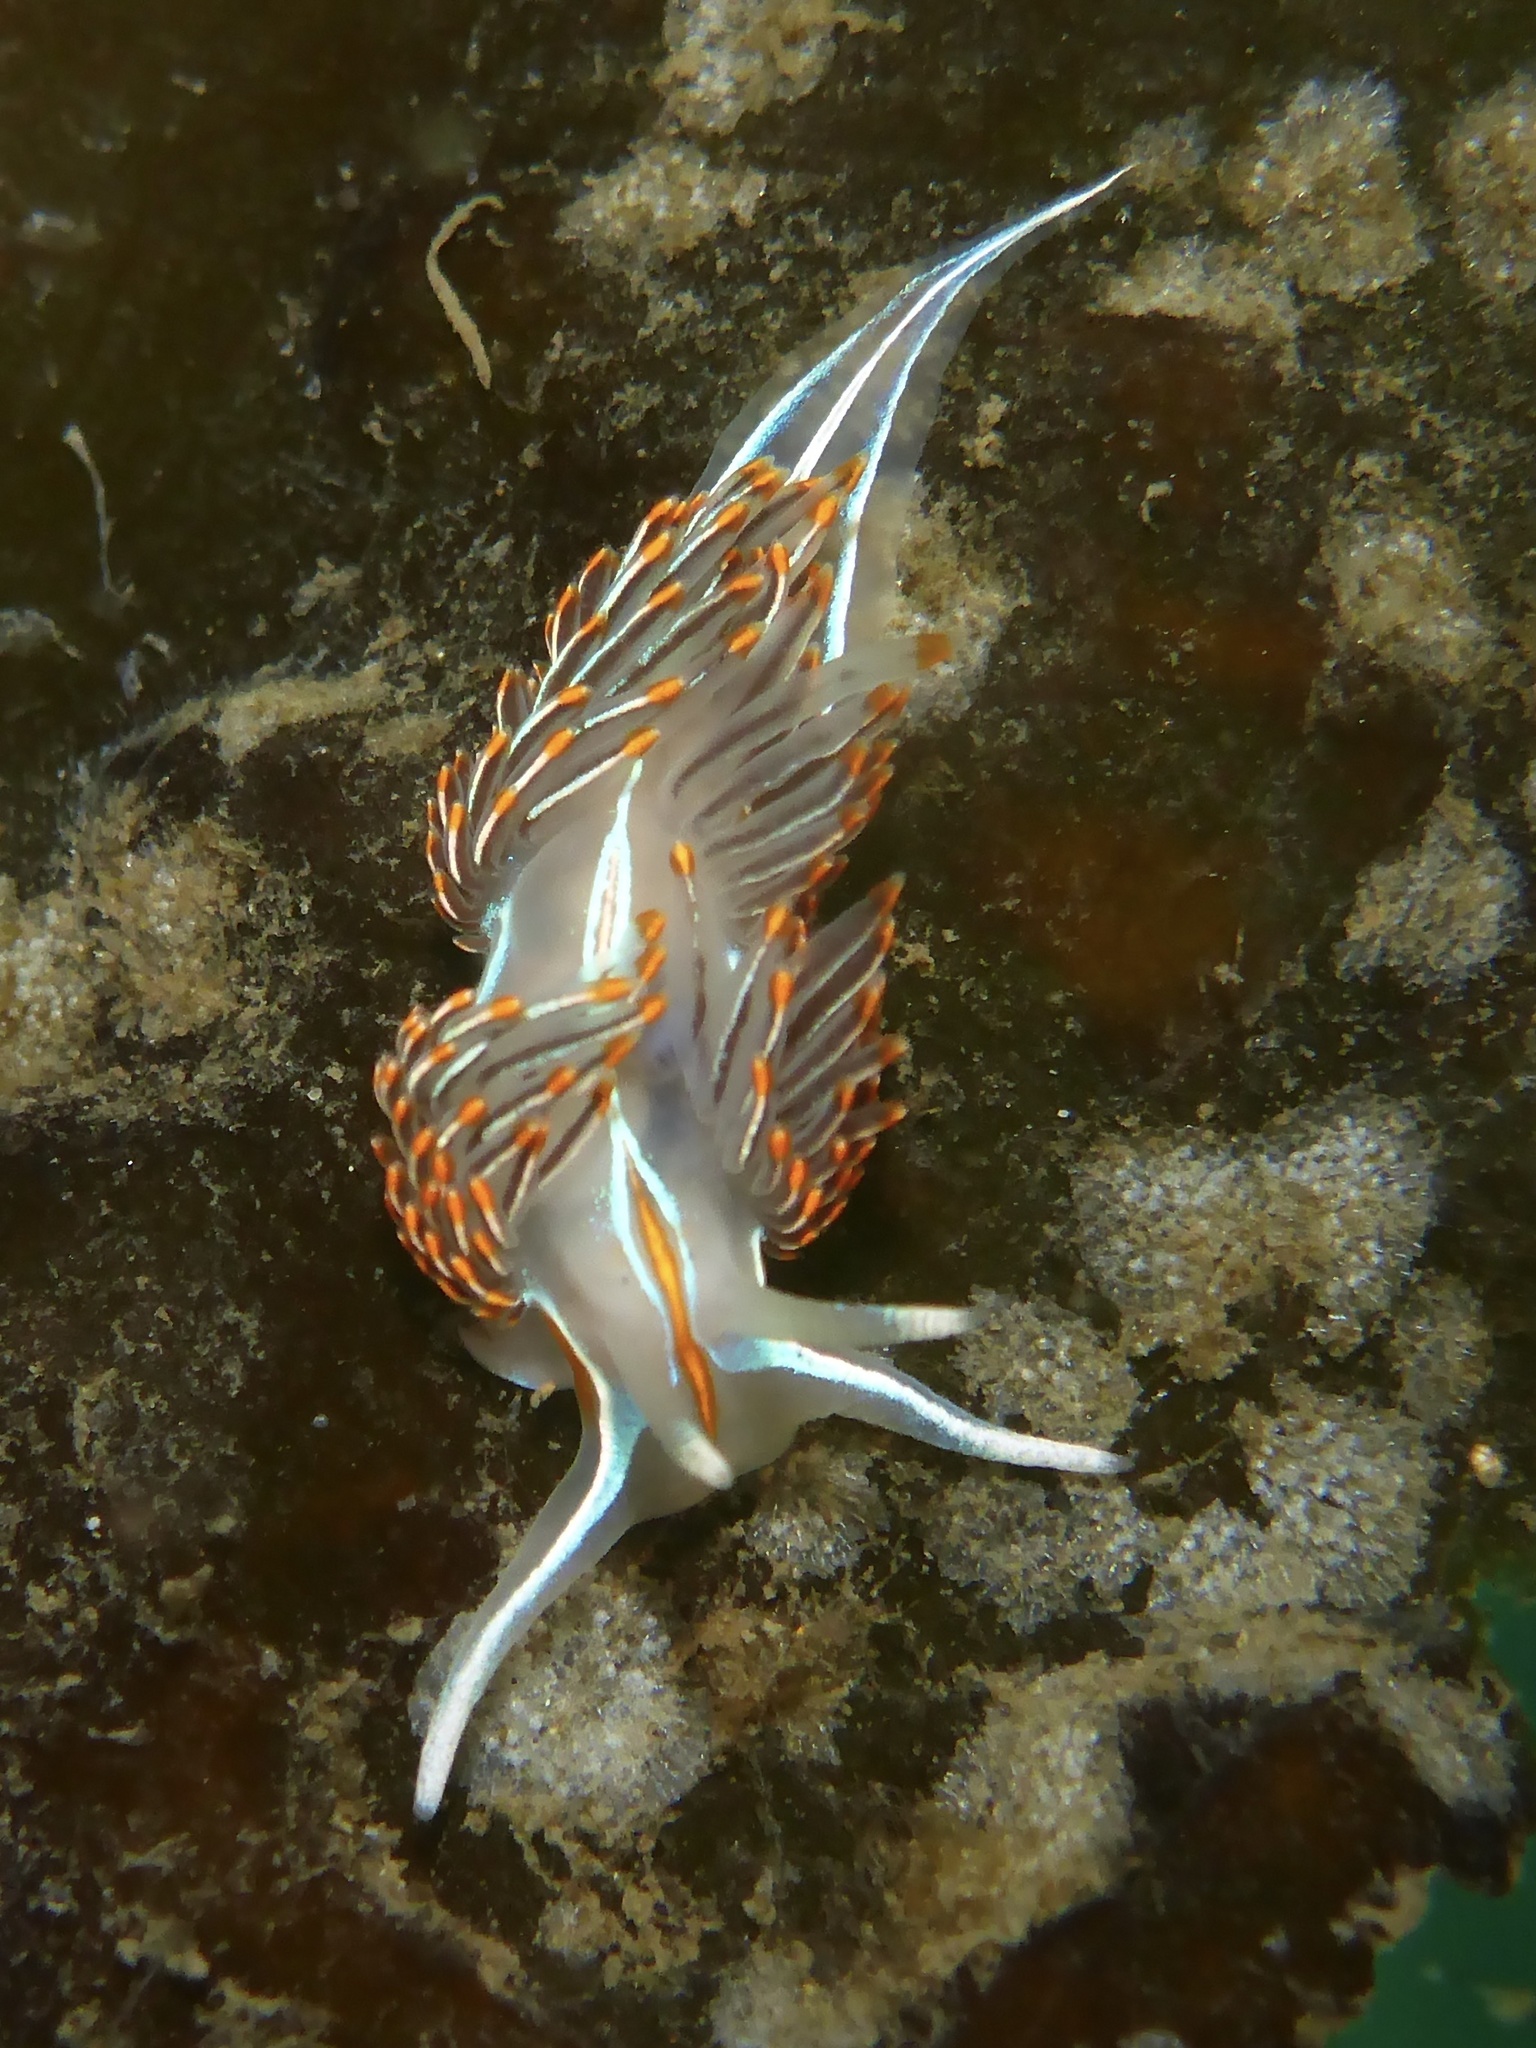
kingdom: Animalia
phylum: Mollusca
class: Gastropoda
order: Nudibranchia
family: Myrrhinidae
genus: Hermissenda
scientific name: Hermissenda crassicornis
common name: Hermissenda
